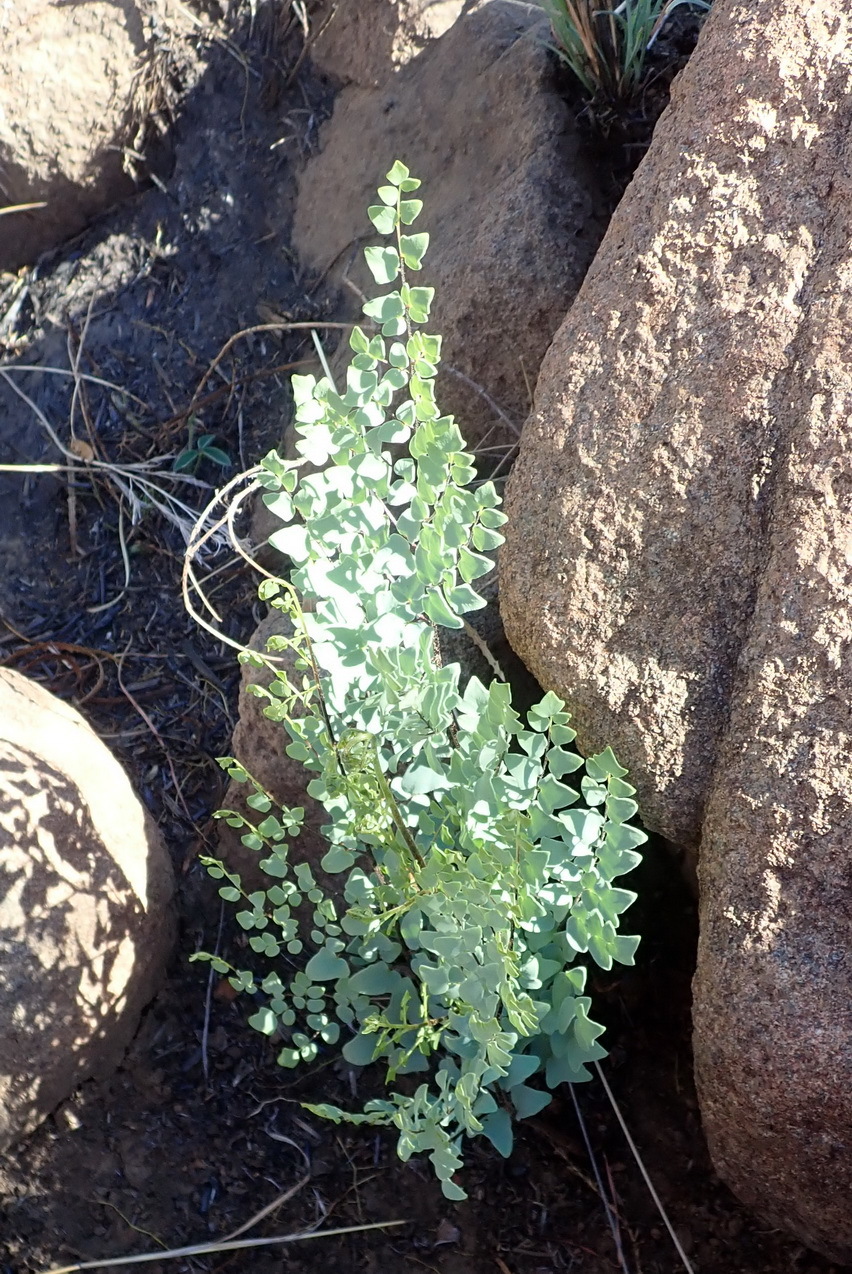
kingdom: Plantae
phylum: Tracheophyta
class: Polypodiopsida
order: Polypodiales
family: Pteridaceae
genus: Pellaea
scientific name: Pellaea calomelanos
